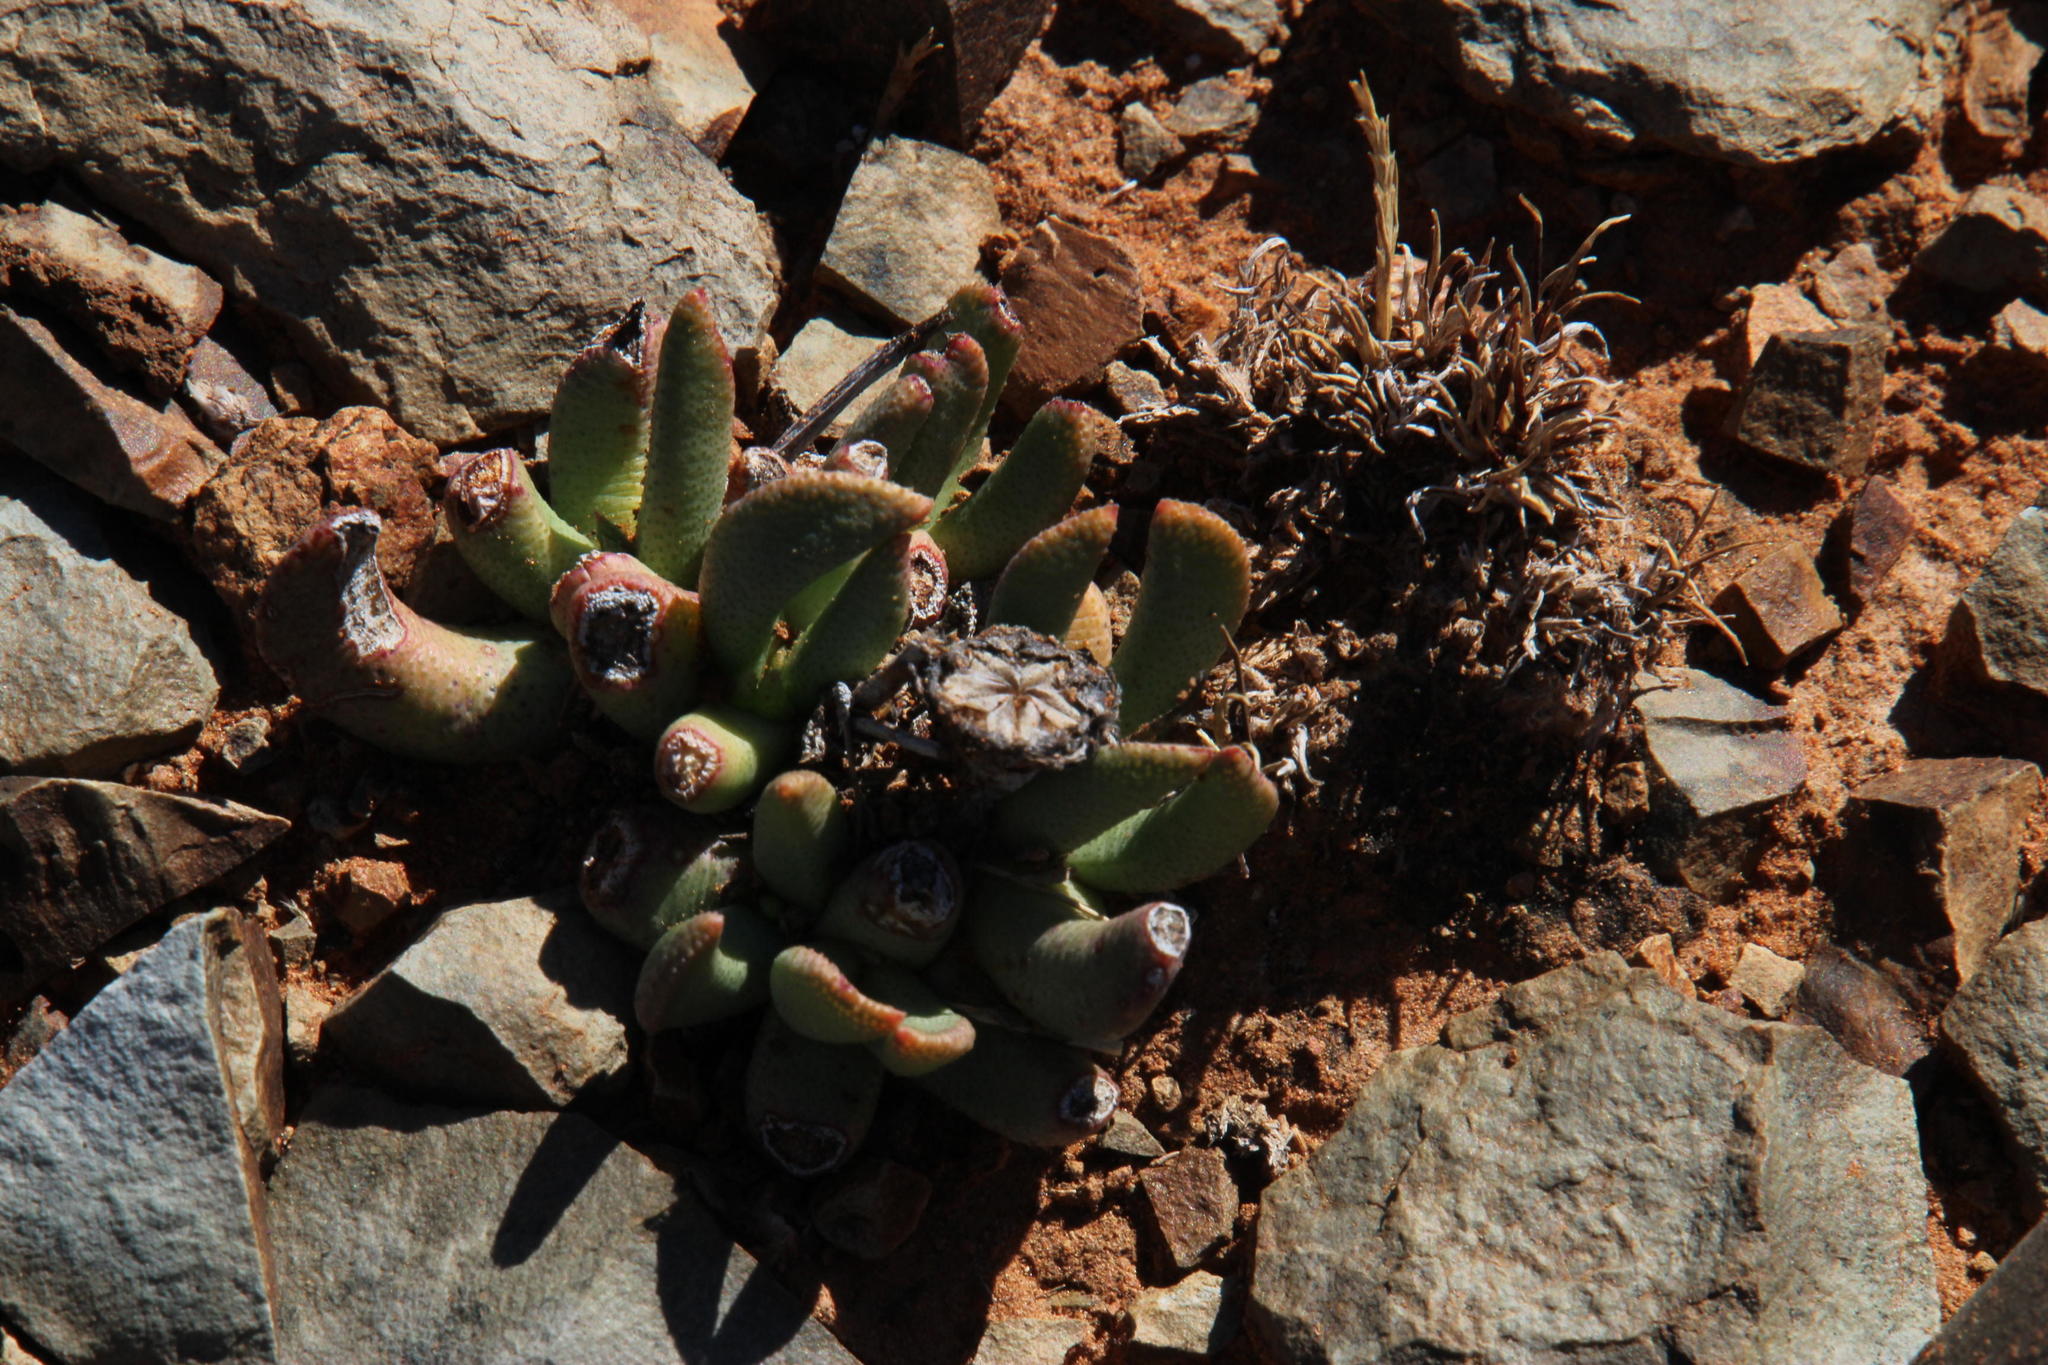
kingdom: Plantae
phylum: Tracheophyta
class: Magnoliopsida
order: Caryophyllales
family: Aizoaceae
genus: Dracophilus
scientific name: Dracophilus Hereroa concava
